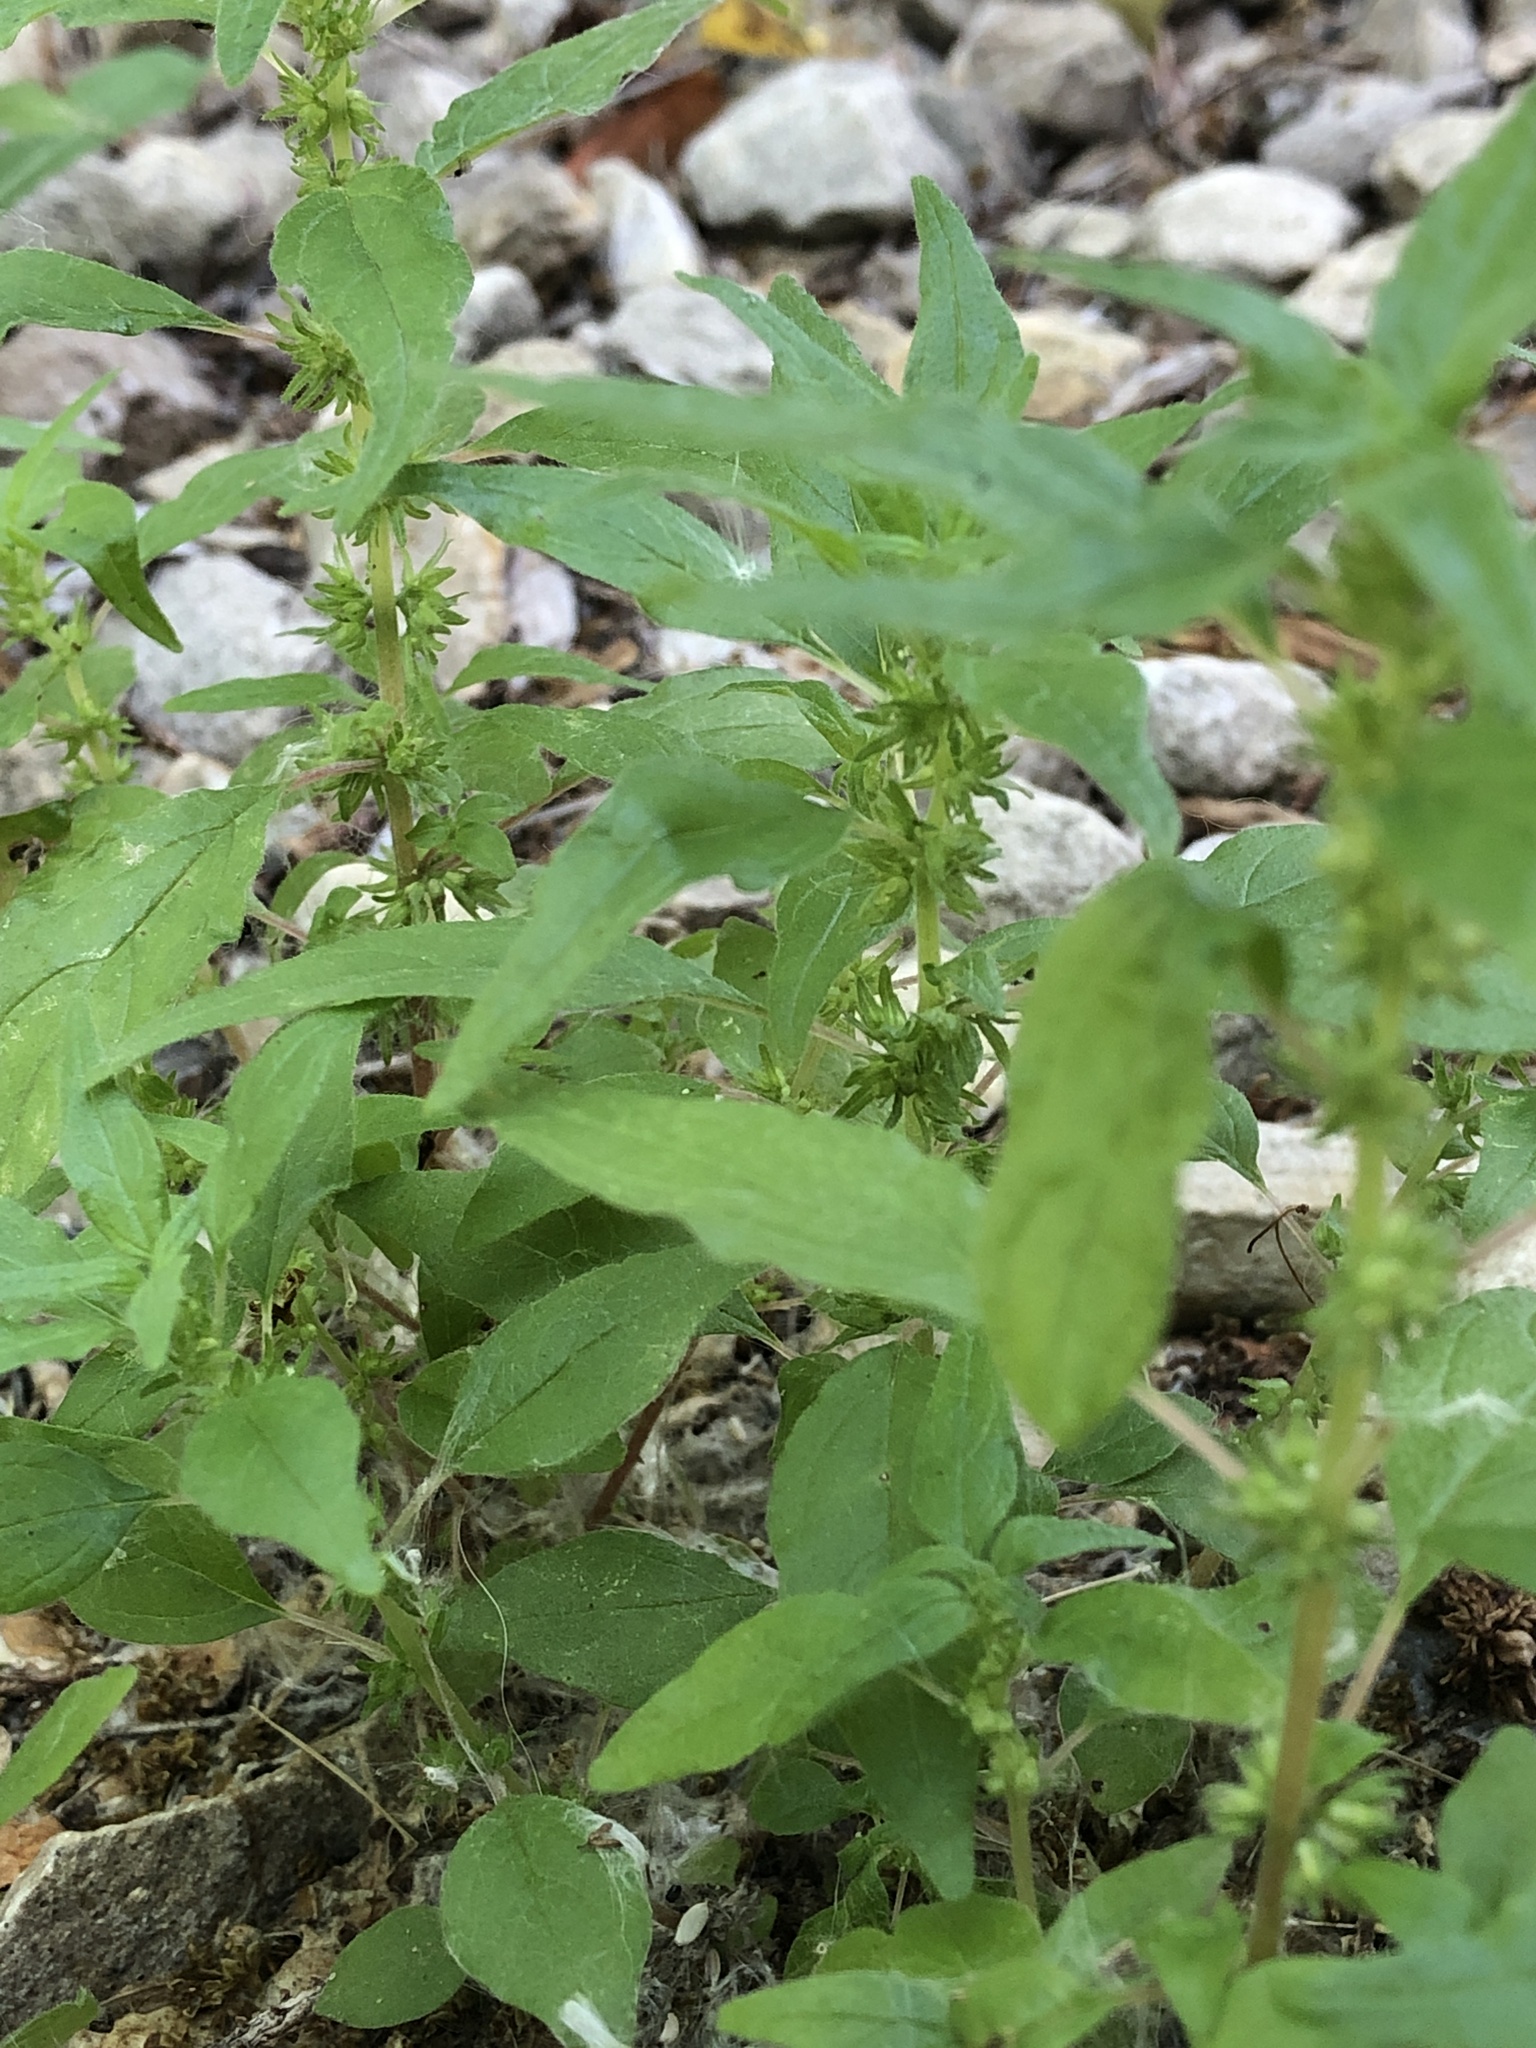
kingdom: Plantae
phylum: Tracheophyta
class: Magnoliopsida
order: Rosales
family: Urticaceae
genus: Parietaria
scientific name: Parietaria pensylvanica
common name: Pennsylvania pellitory
